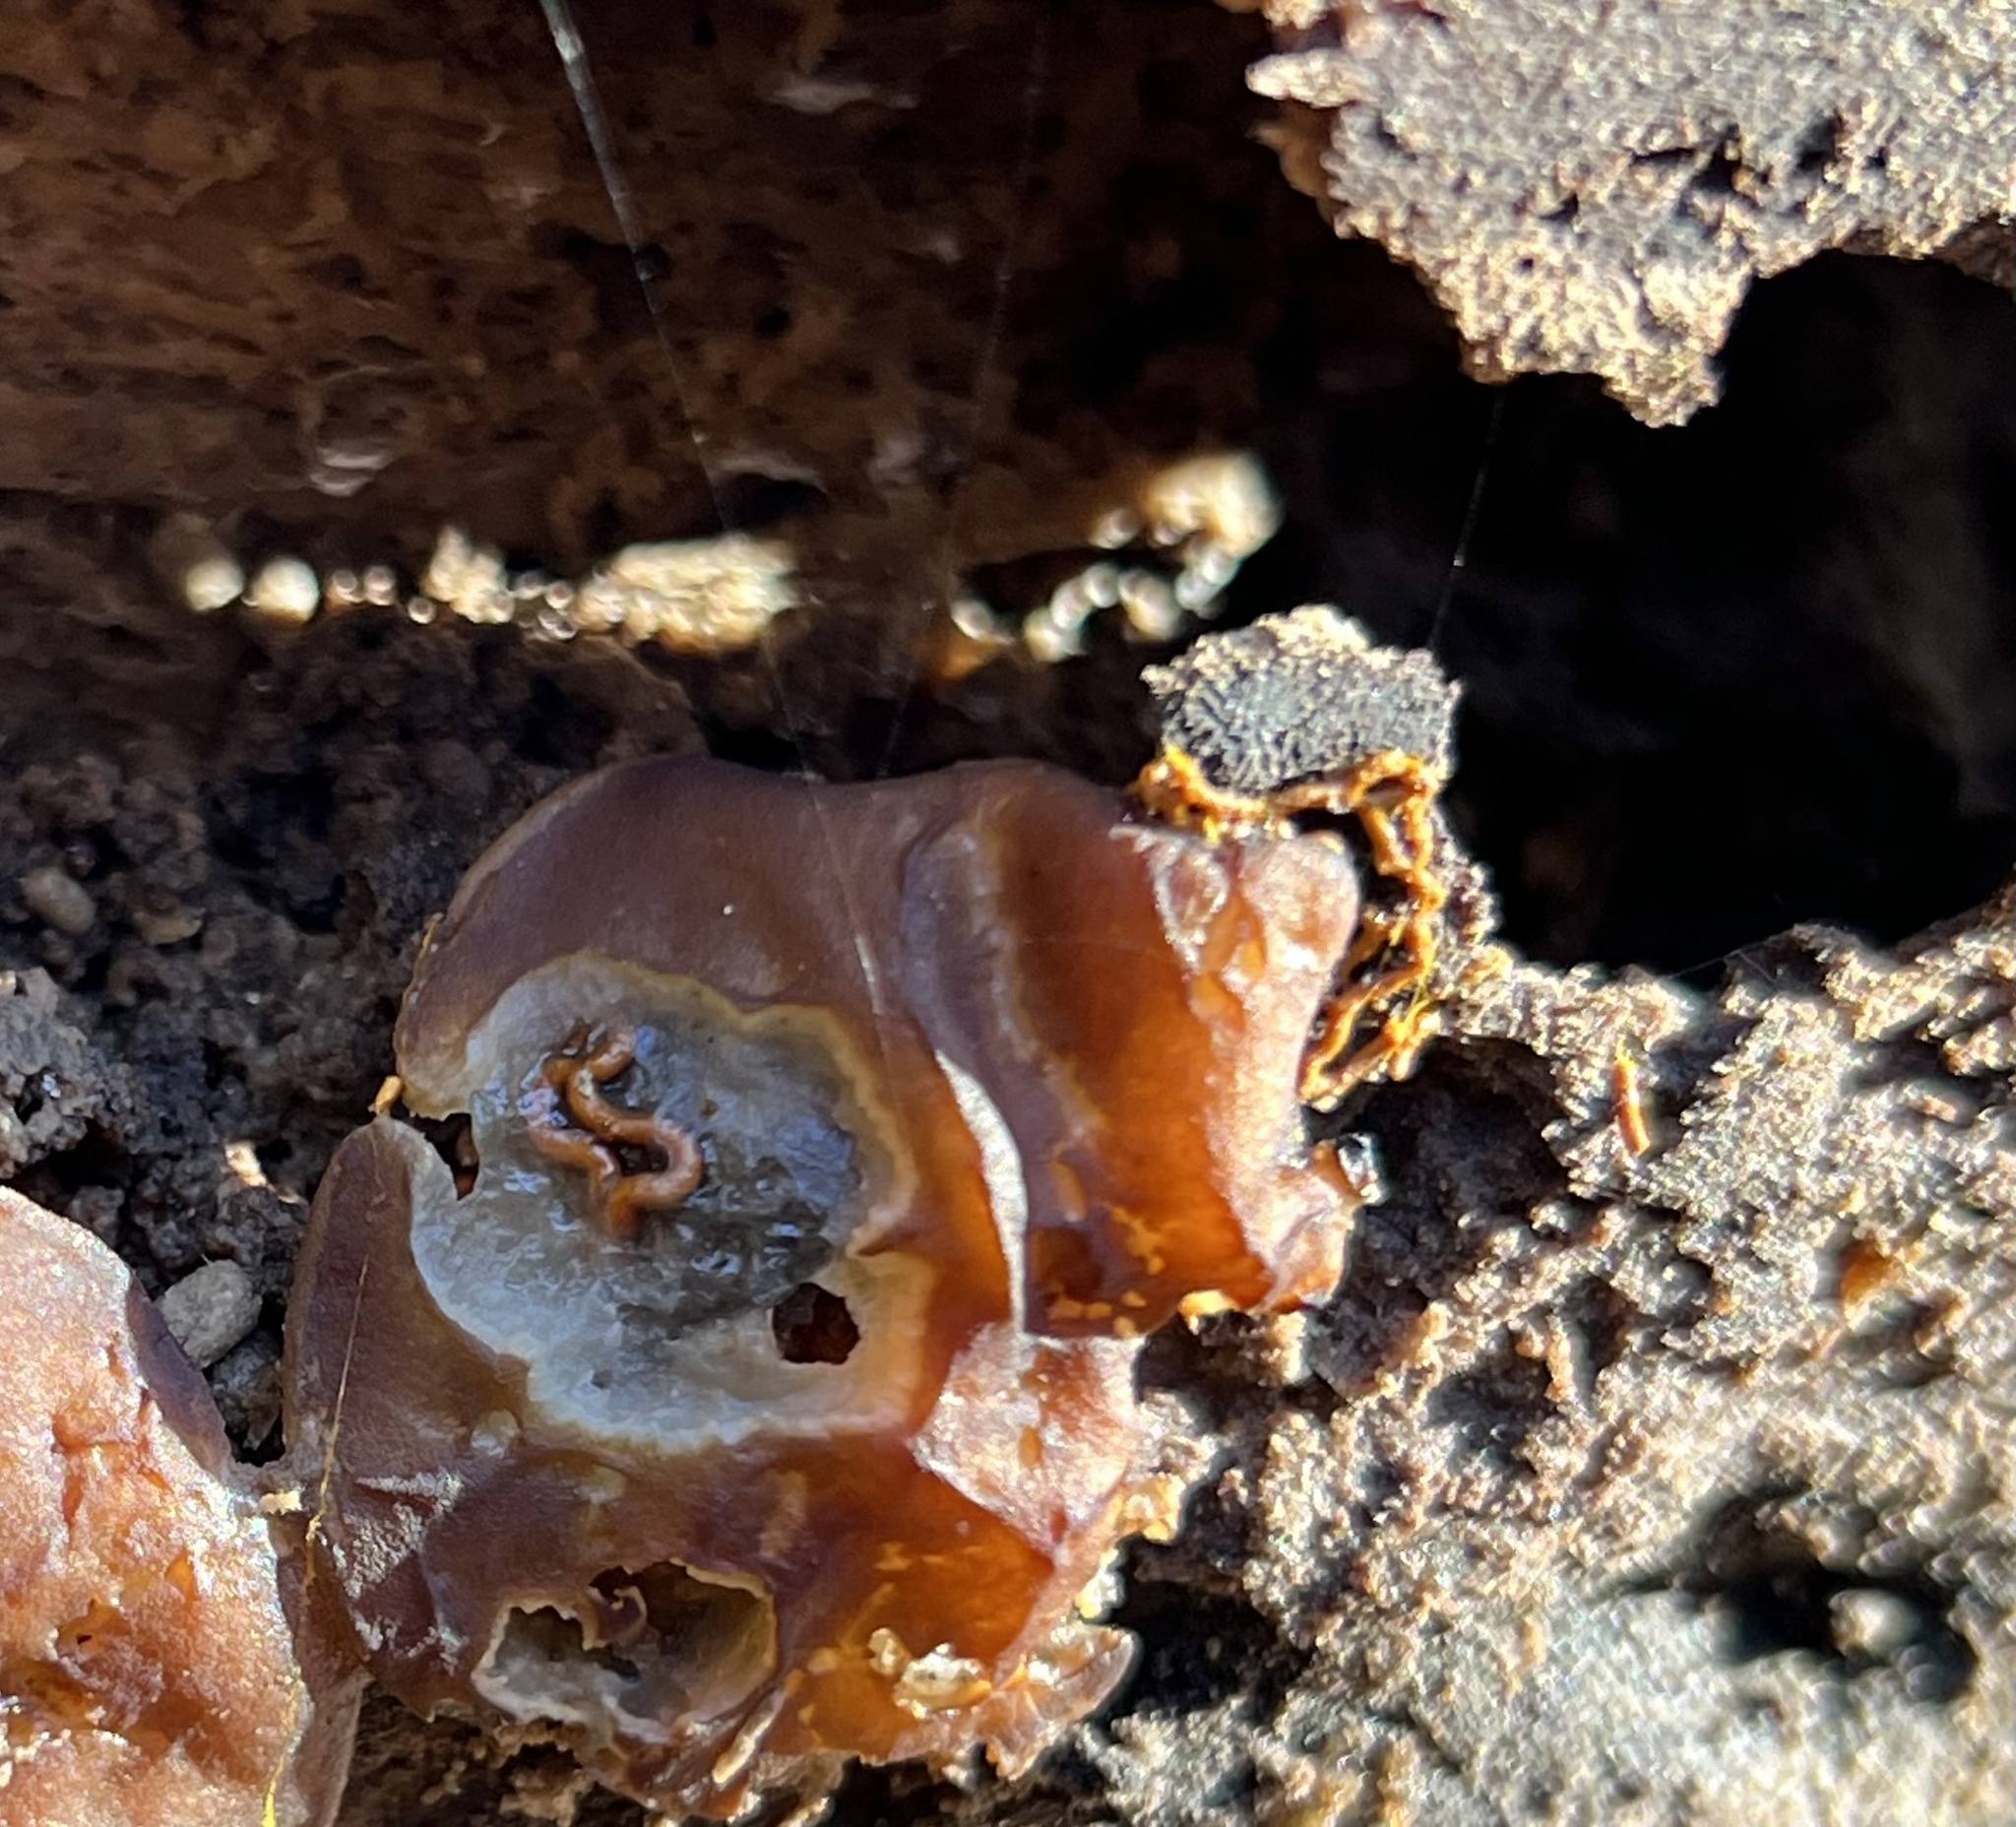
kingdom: Protozoa
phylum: Mycetozoa
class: Myxomycetes
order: Trichiales
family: Arcyriaceae
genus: Hemitrichia
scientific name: Hemitrichia serpula
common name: Pretzel slime mold
